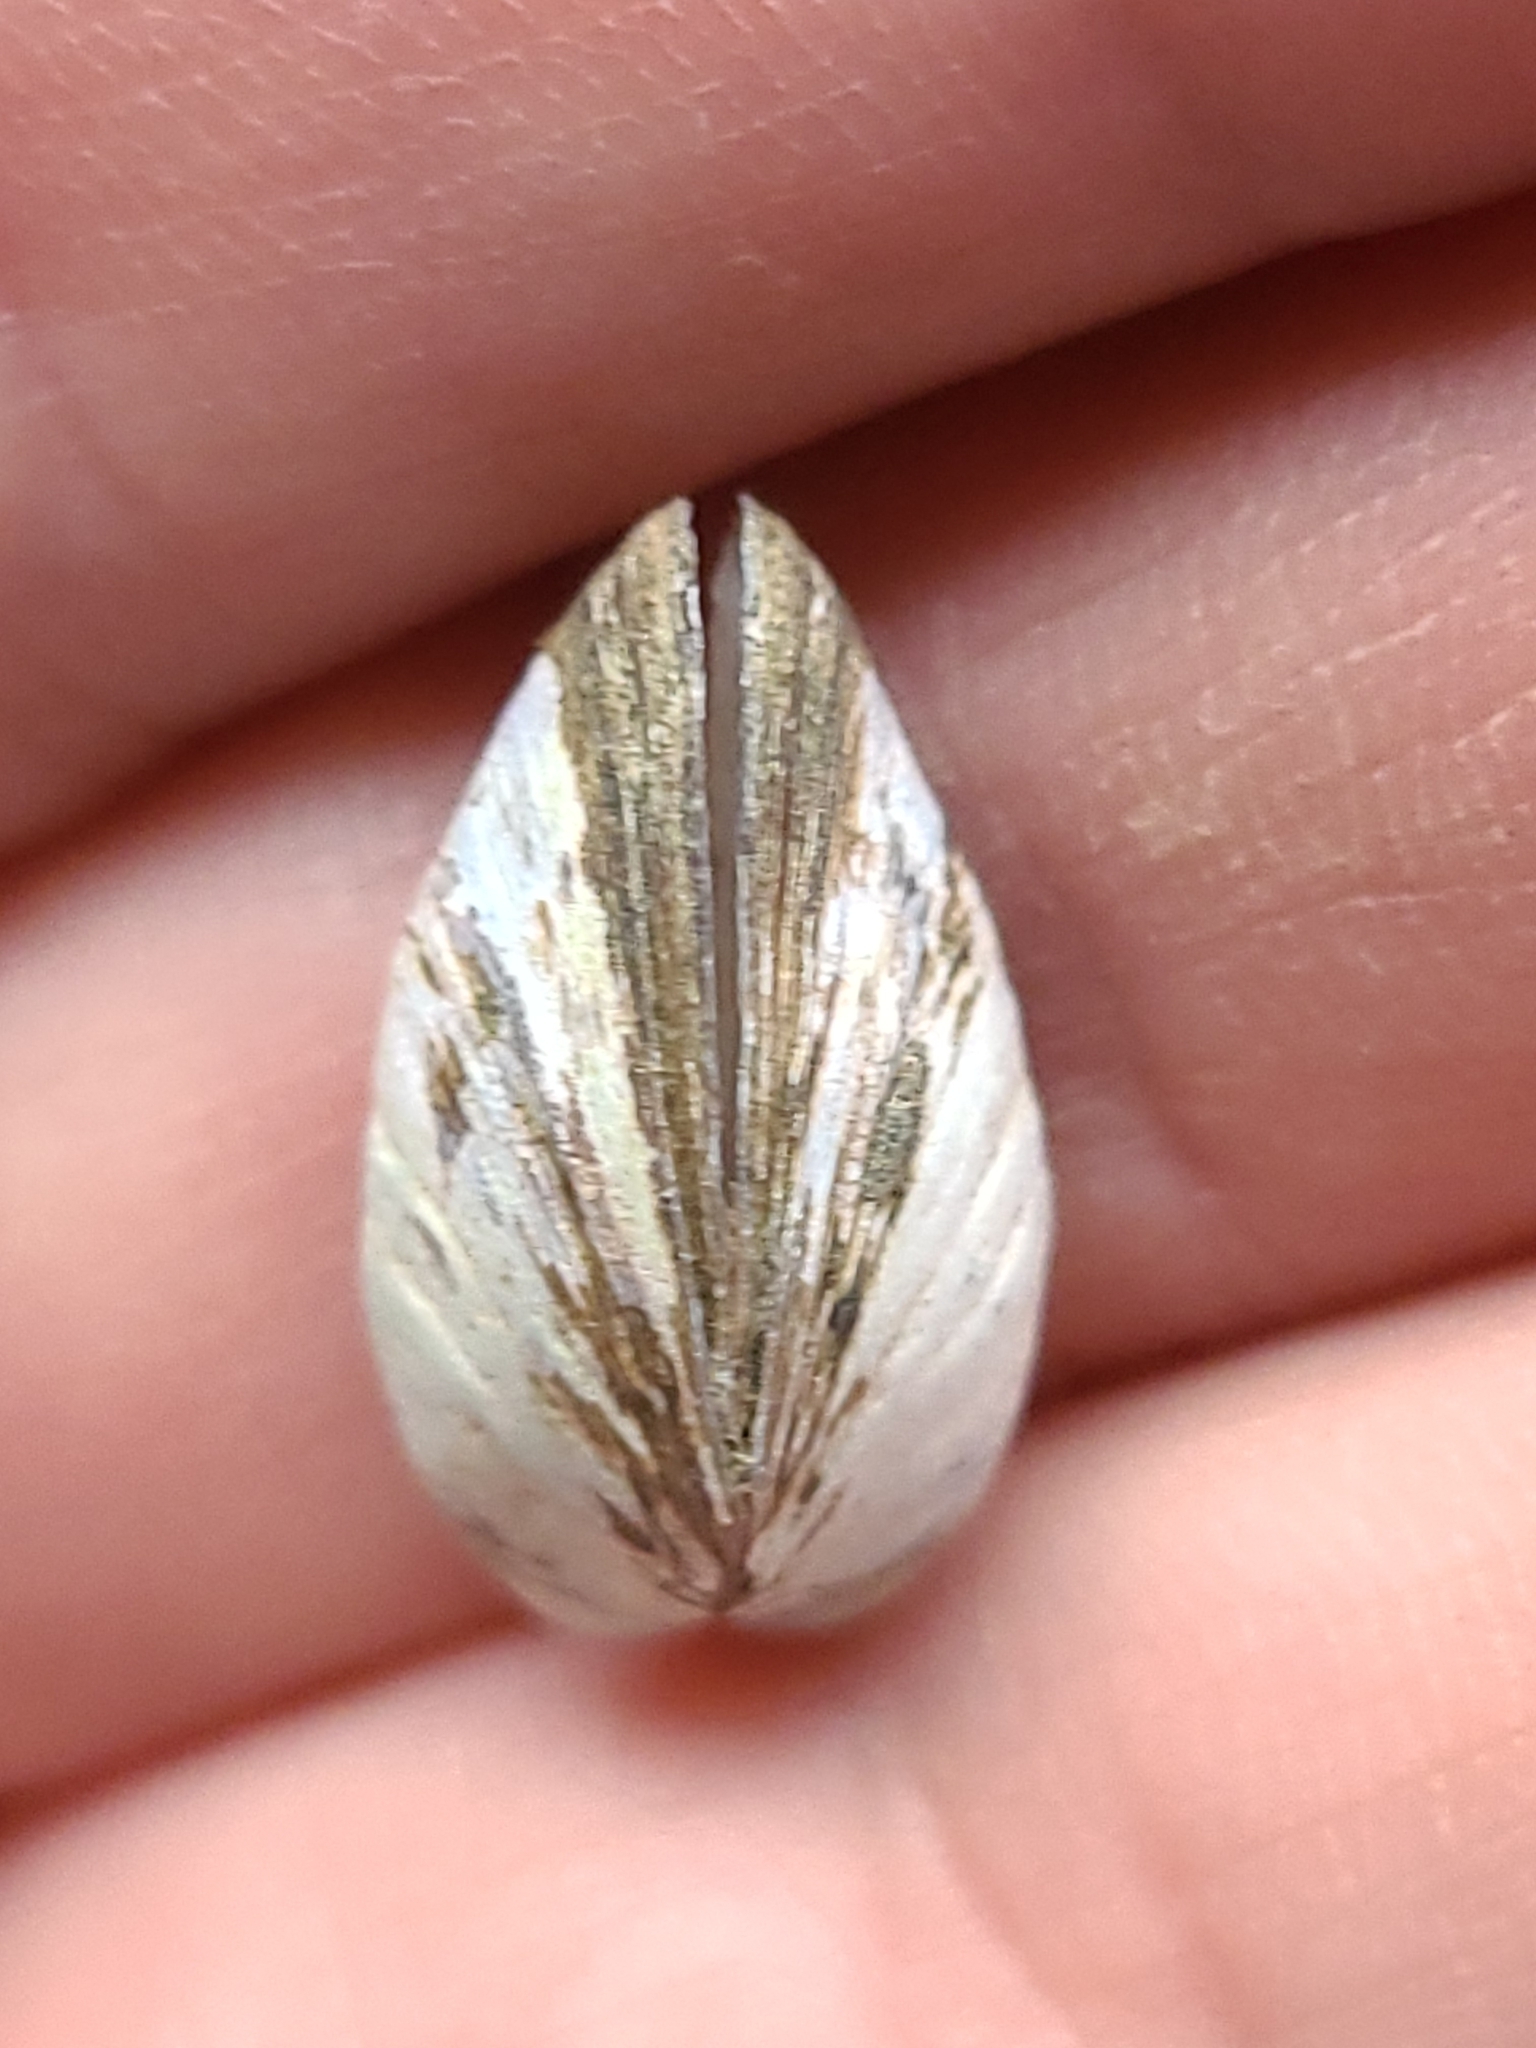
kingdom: Animalia
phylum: Mollusca
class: Bivalvia
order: Myida
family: Dreissenidae
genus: Dreissena
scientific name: Dreissena polymorpha
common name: Zebra mussel
